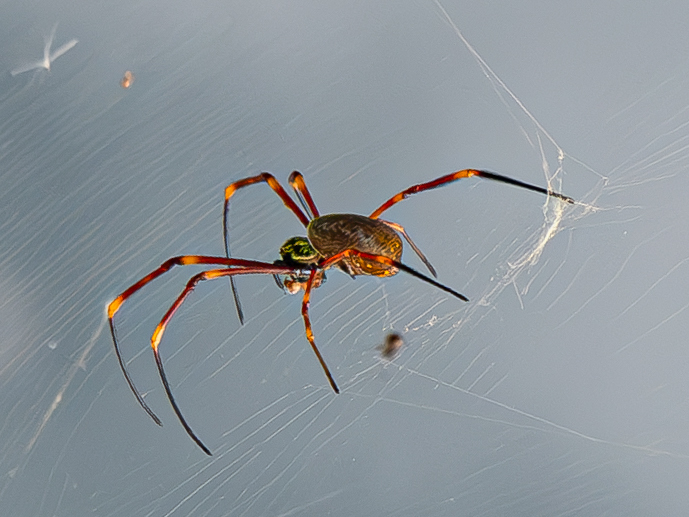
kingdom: Animalia
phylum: Arthropoda
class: Arachnida
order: Araneae
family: Araneidae
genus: Trichonephila
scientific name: Trichonephila plumipes
